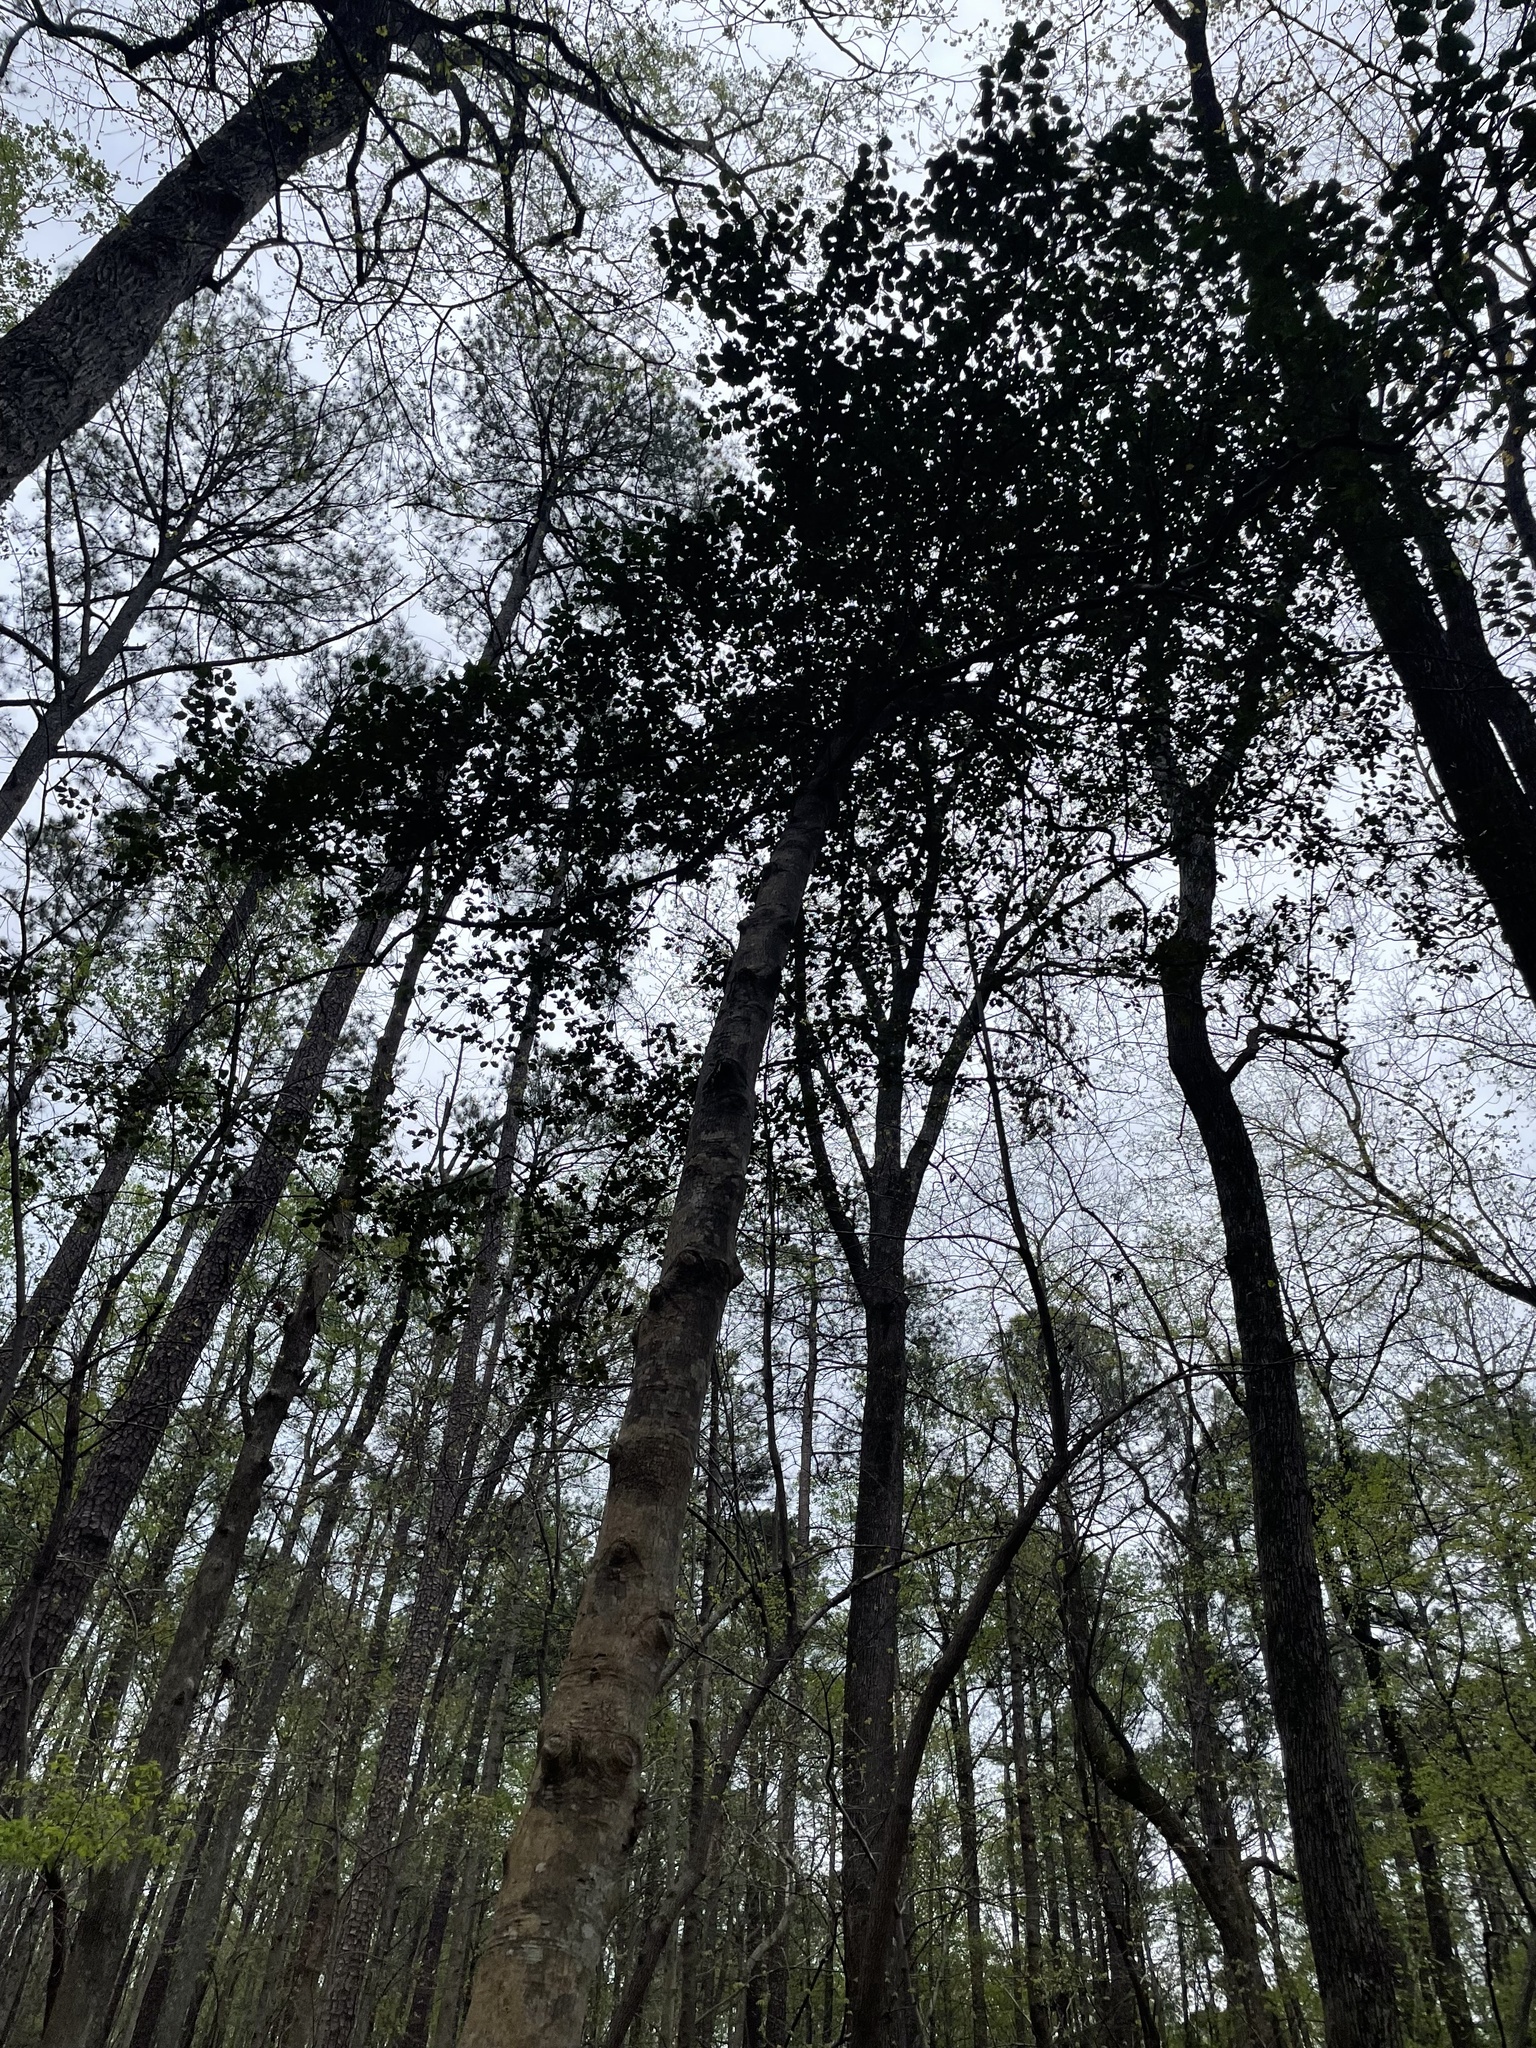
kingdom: Plantae
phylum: Tracheophyta
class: Magnoliopsida
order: Aquifoliales
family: Aquifoliaceae
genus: Ilex
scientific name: Ilex opaca
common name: American holly
